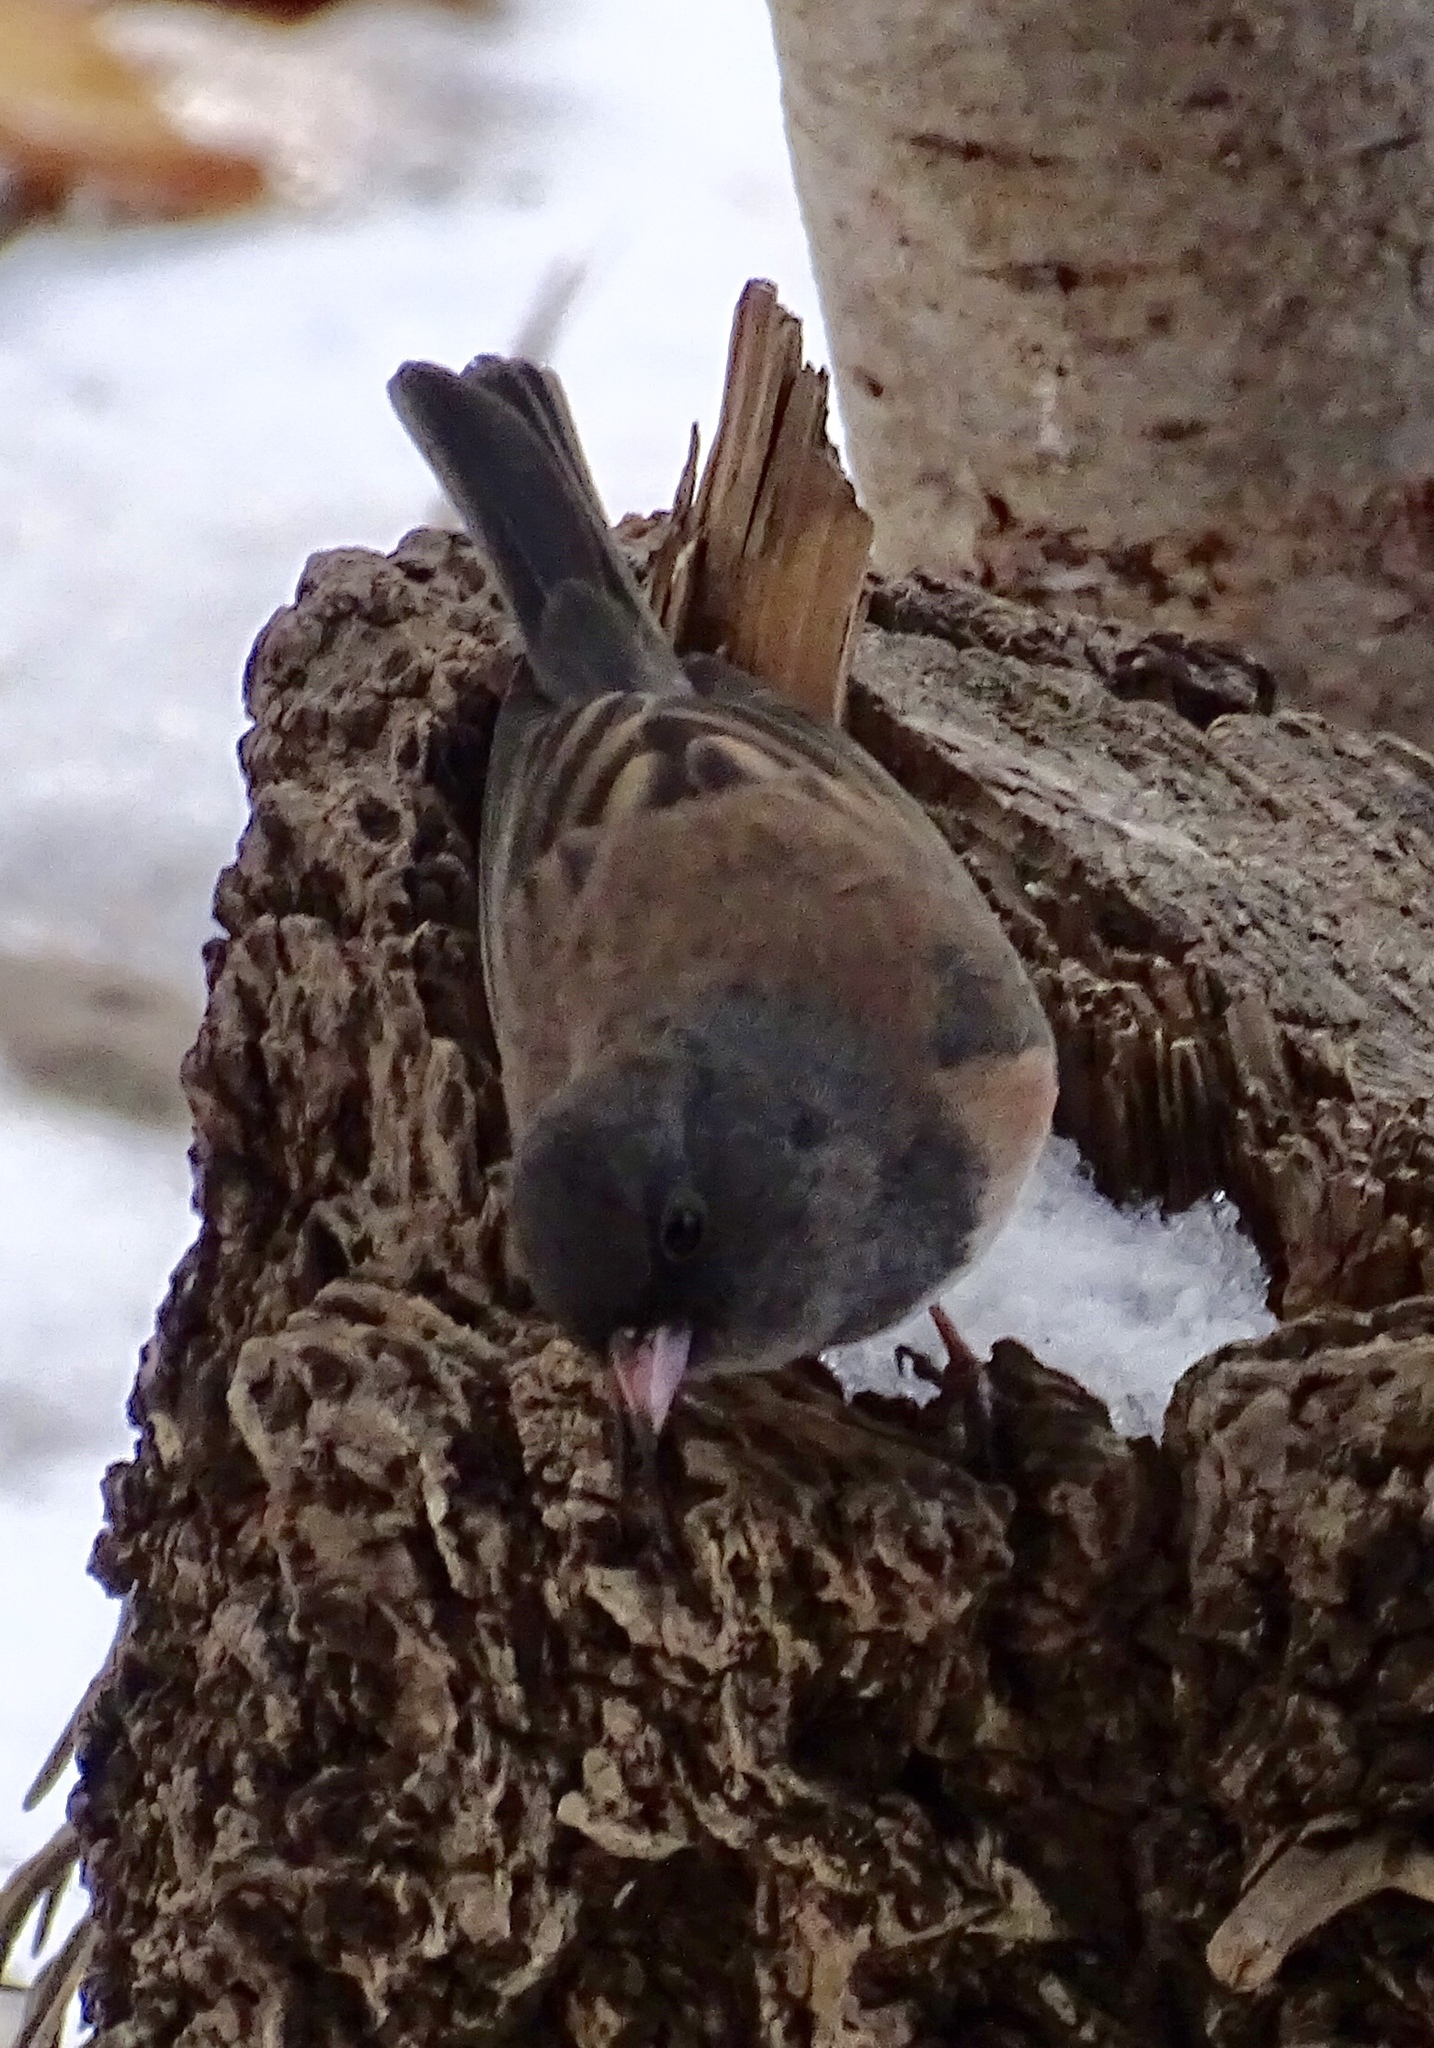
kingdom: Animalia
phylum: Chordata
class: Aves
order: Passeriformes
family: Passerellidae
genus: Junco
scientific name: Junco hyemalis
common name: Dark-eyed junco
